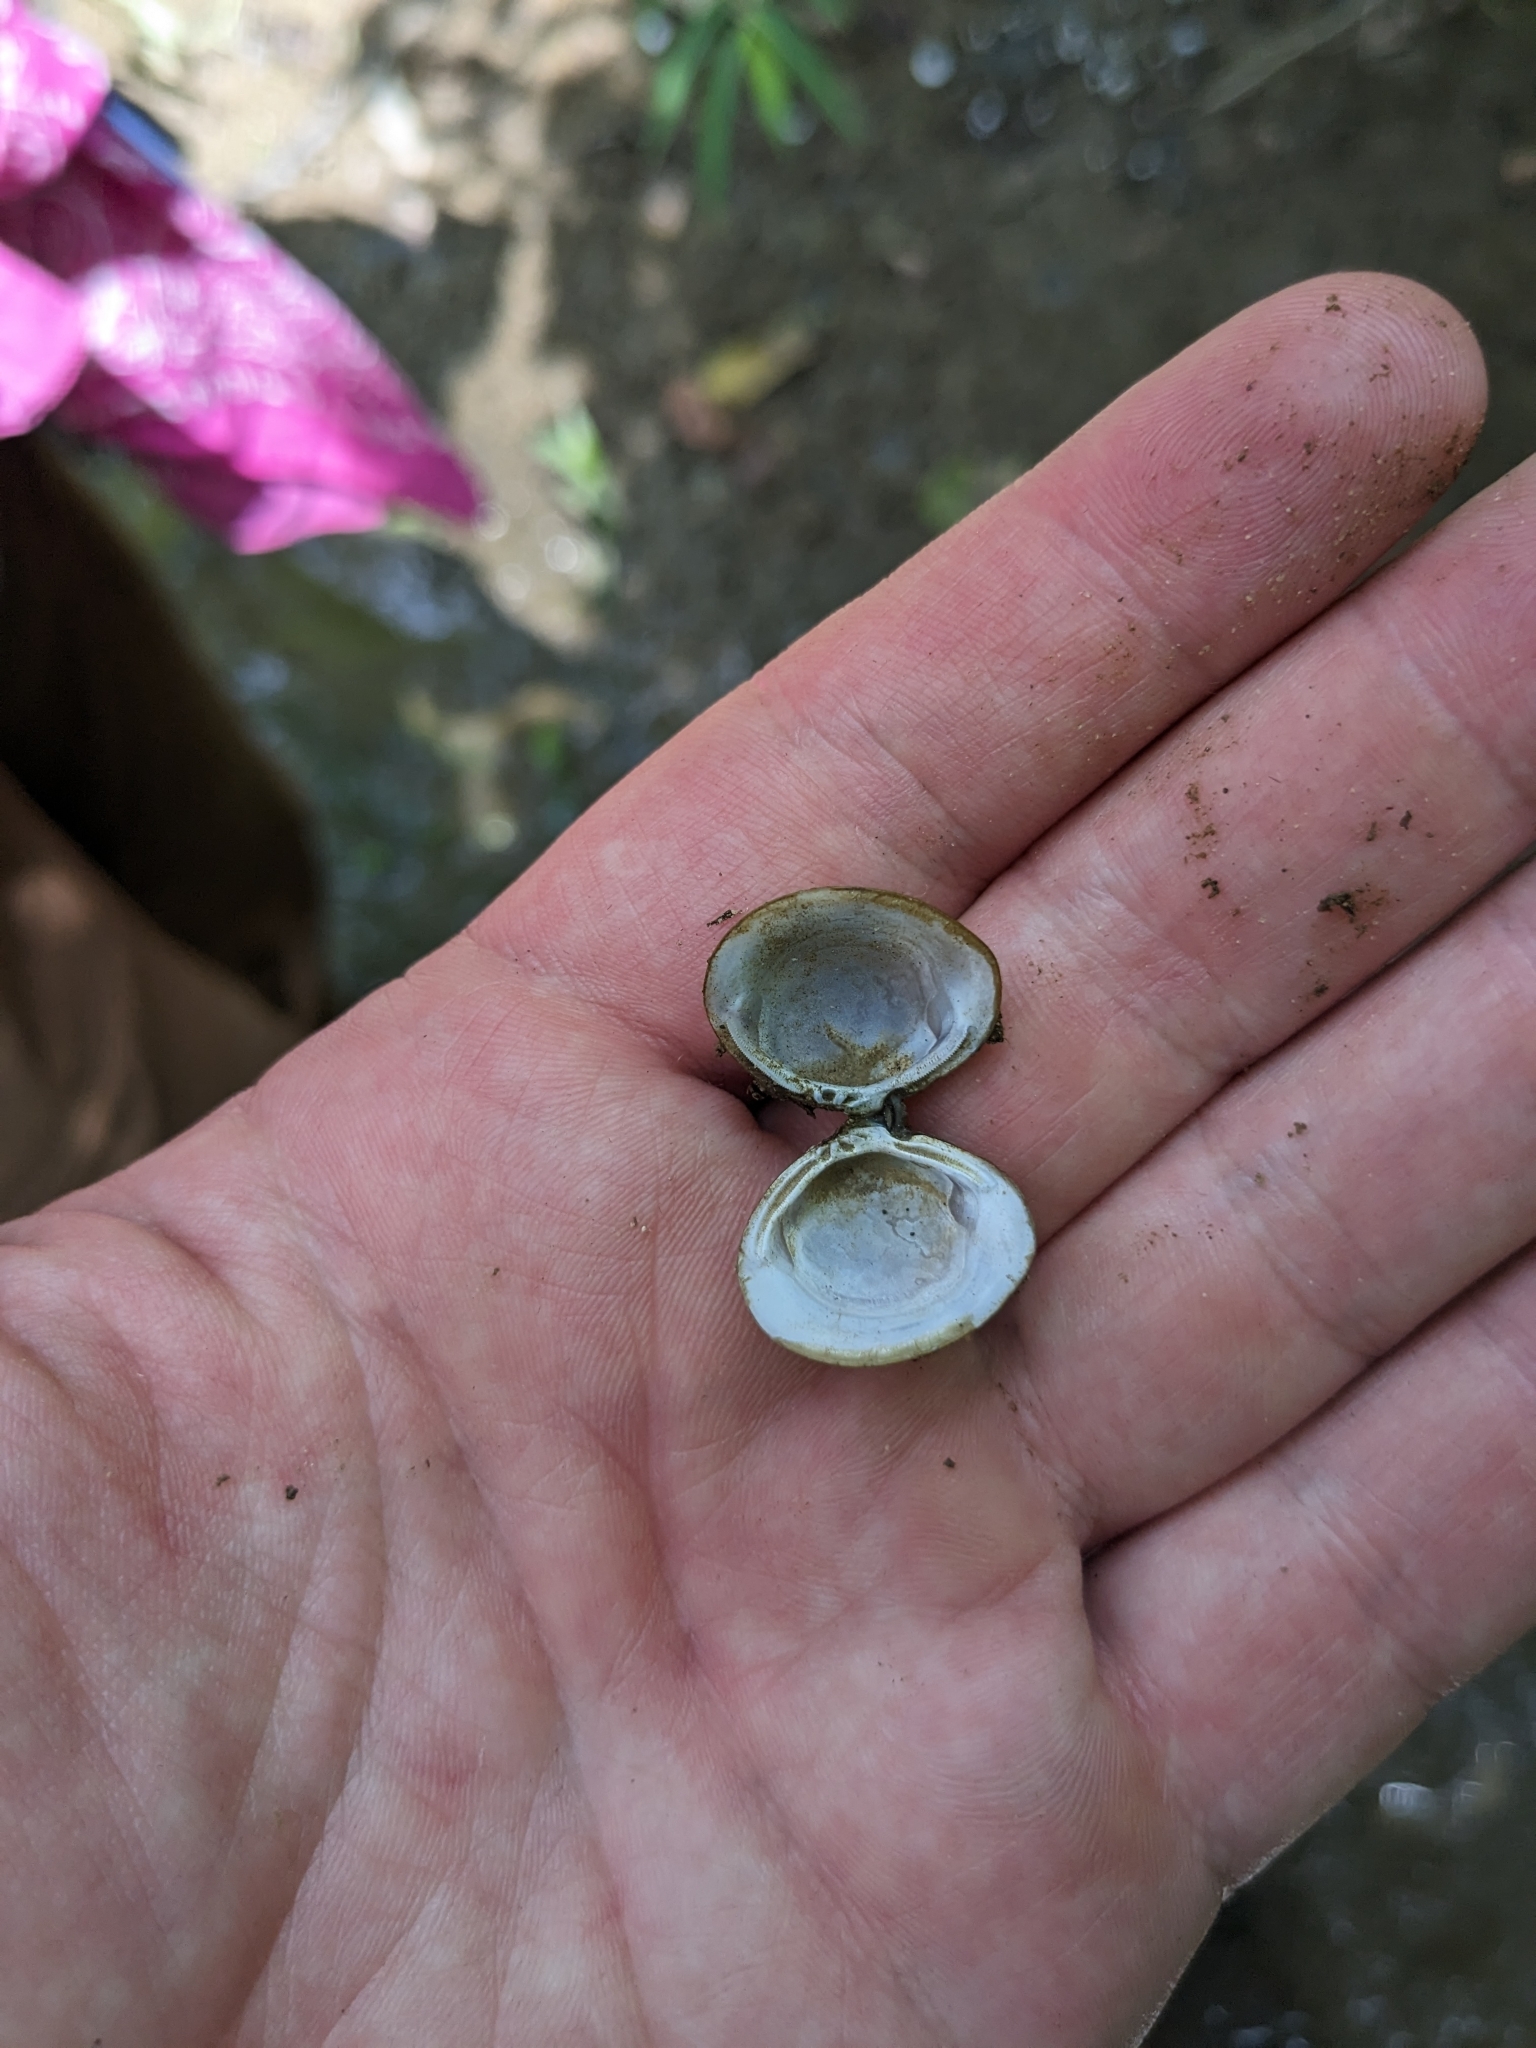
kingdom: Animalia
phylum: Mollusca
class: Bivalvia
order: Venerida
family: Cyrenidae
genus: Corbicula
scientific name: Corbicula fluminea
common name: Asian clam
